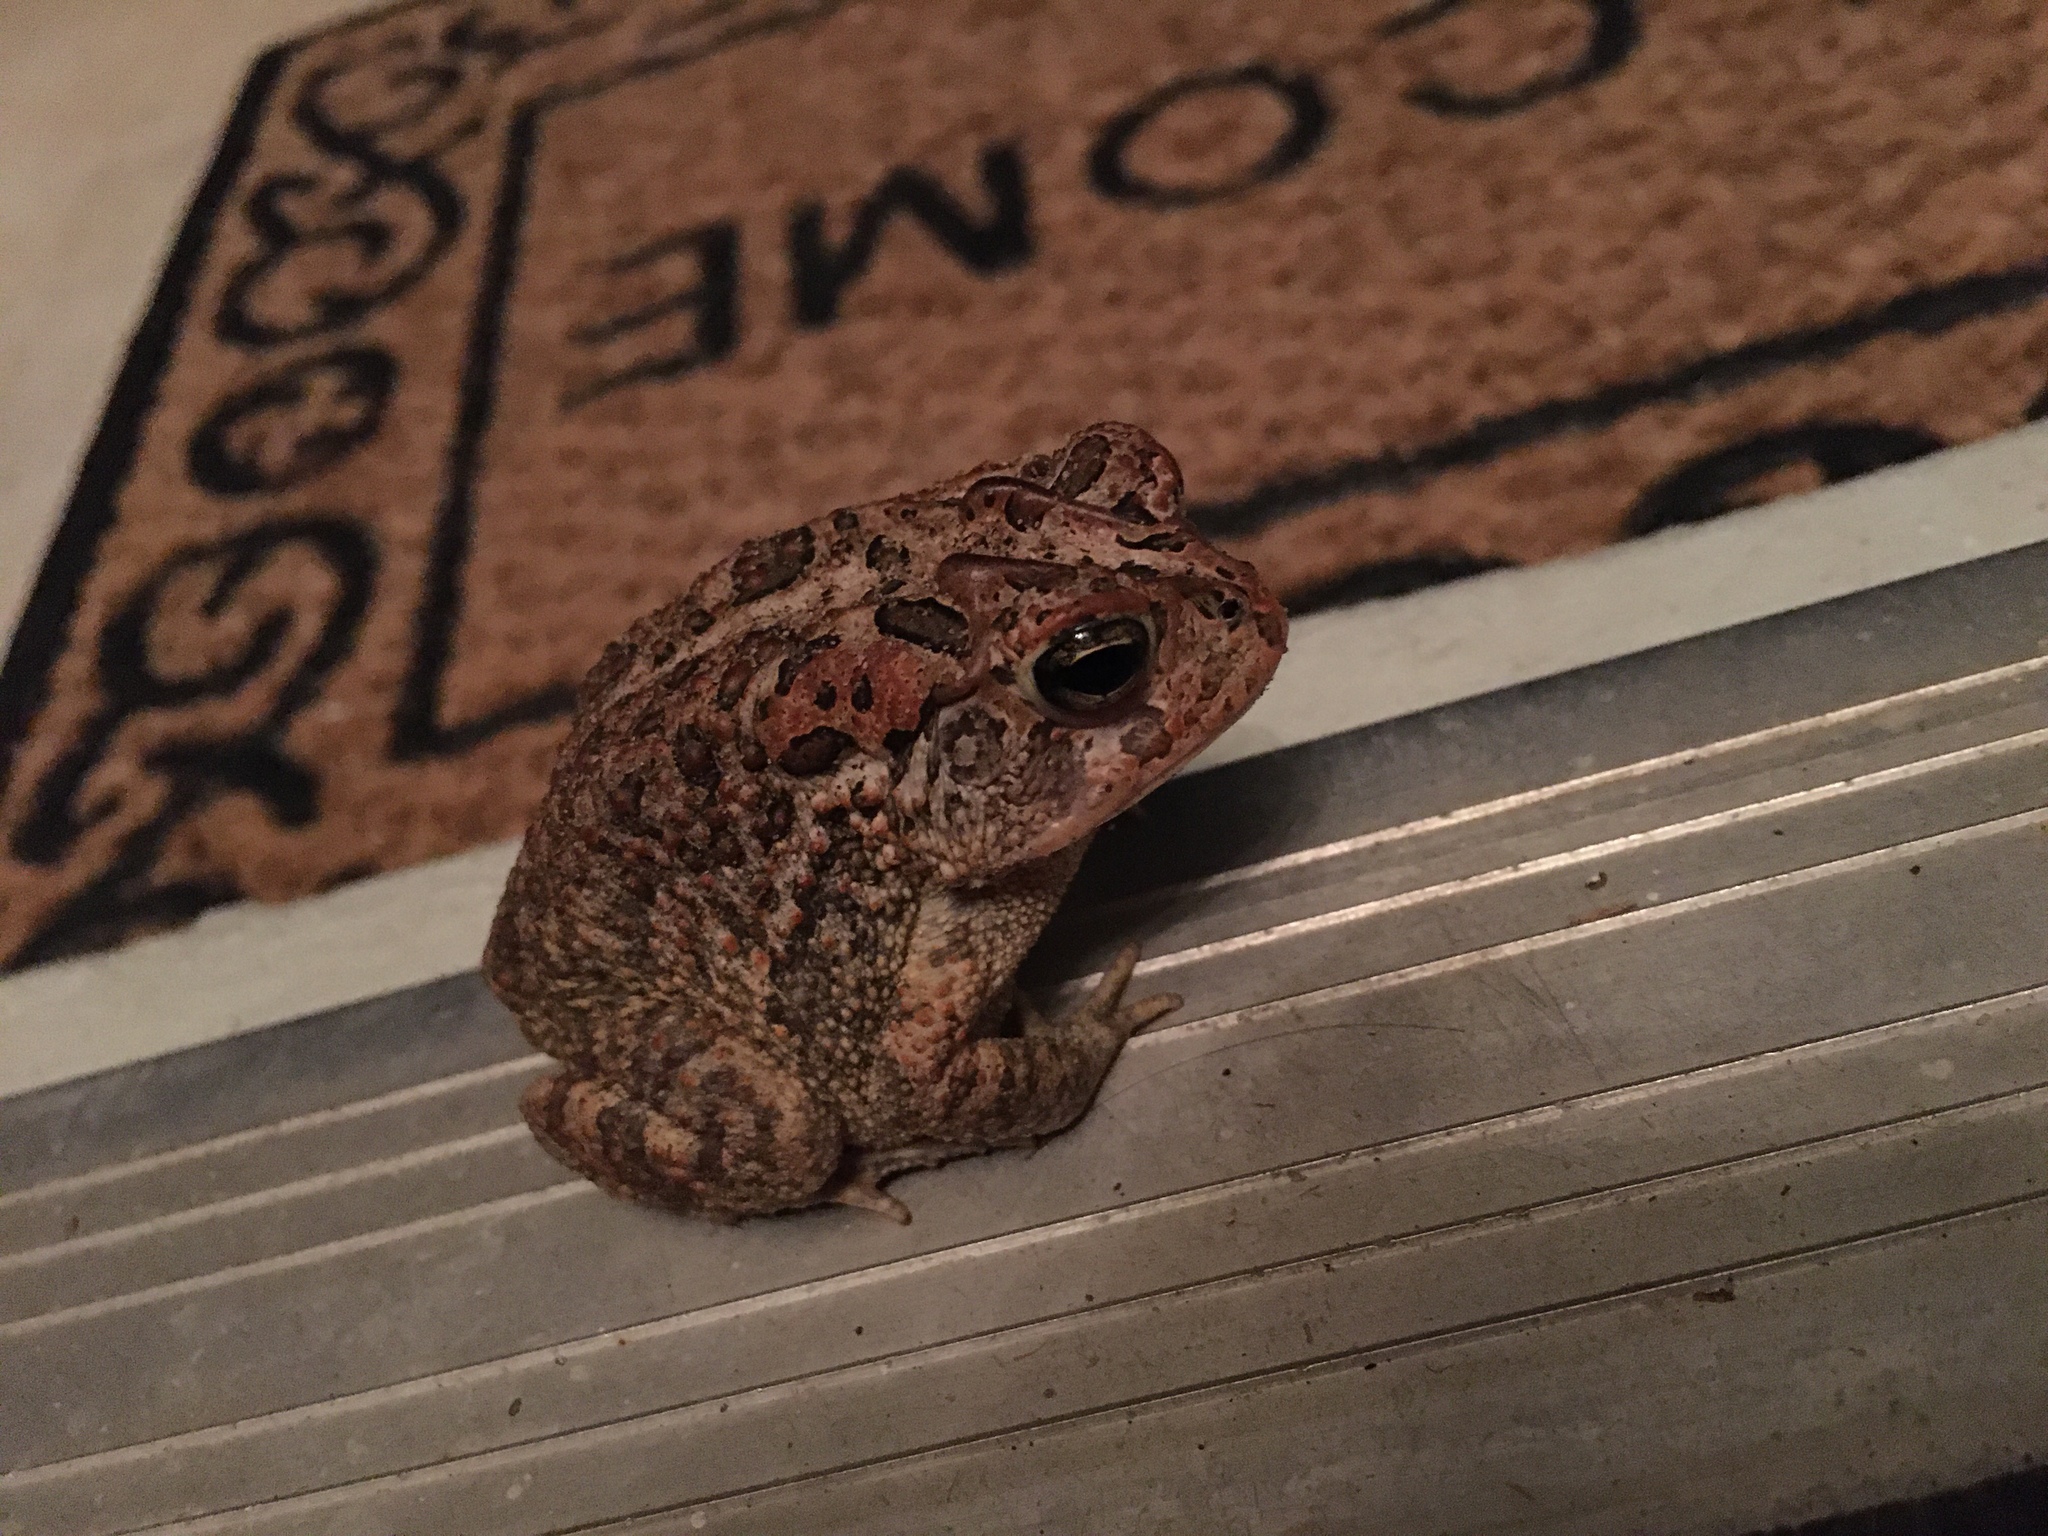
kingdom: Animalia
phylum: Chordata
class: Amphibia
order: Anura
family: Bufonidae
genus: Anaxyrus
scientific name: Anaxyrus terrestris
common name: Southern toad
